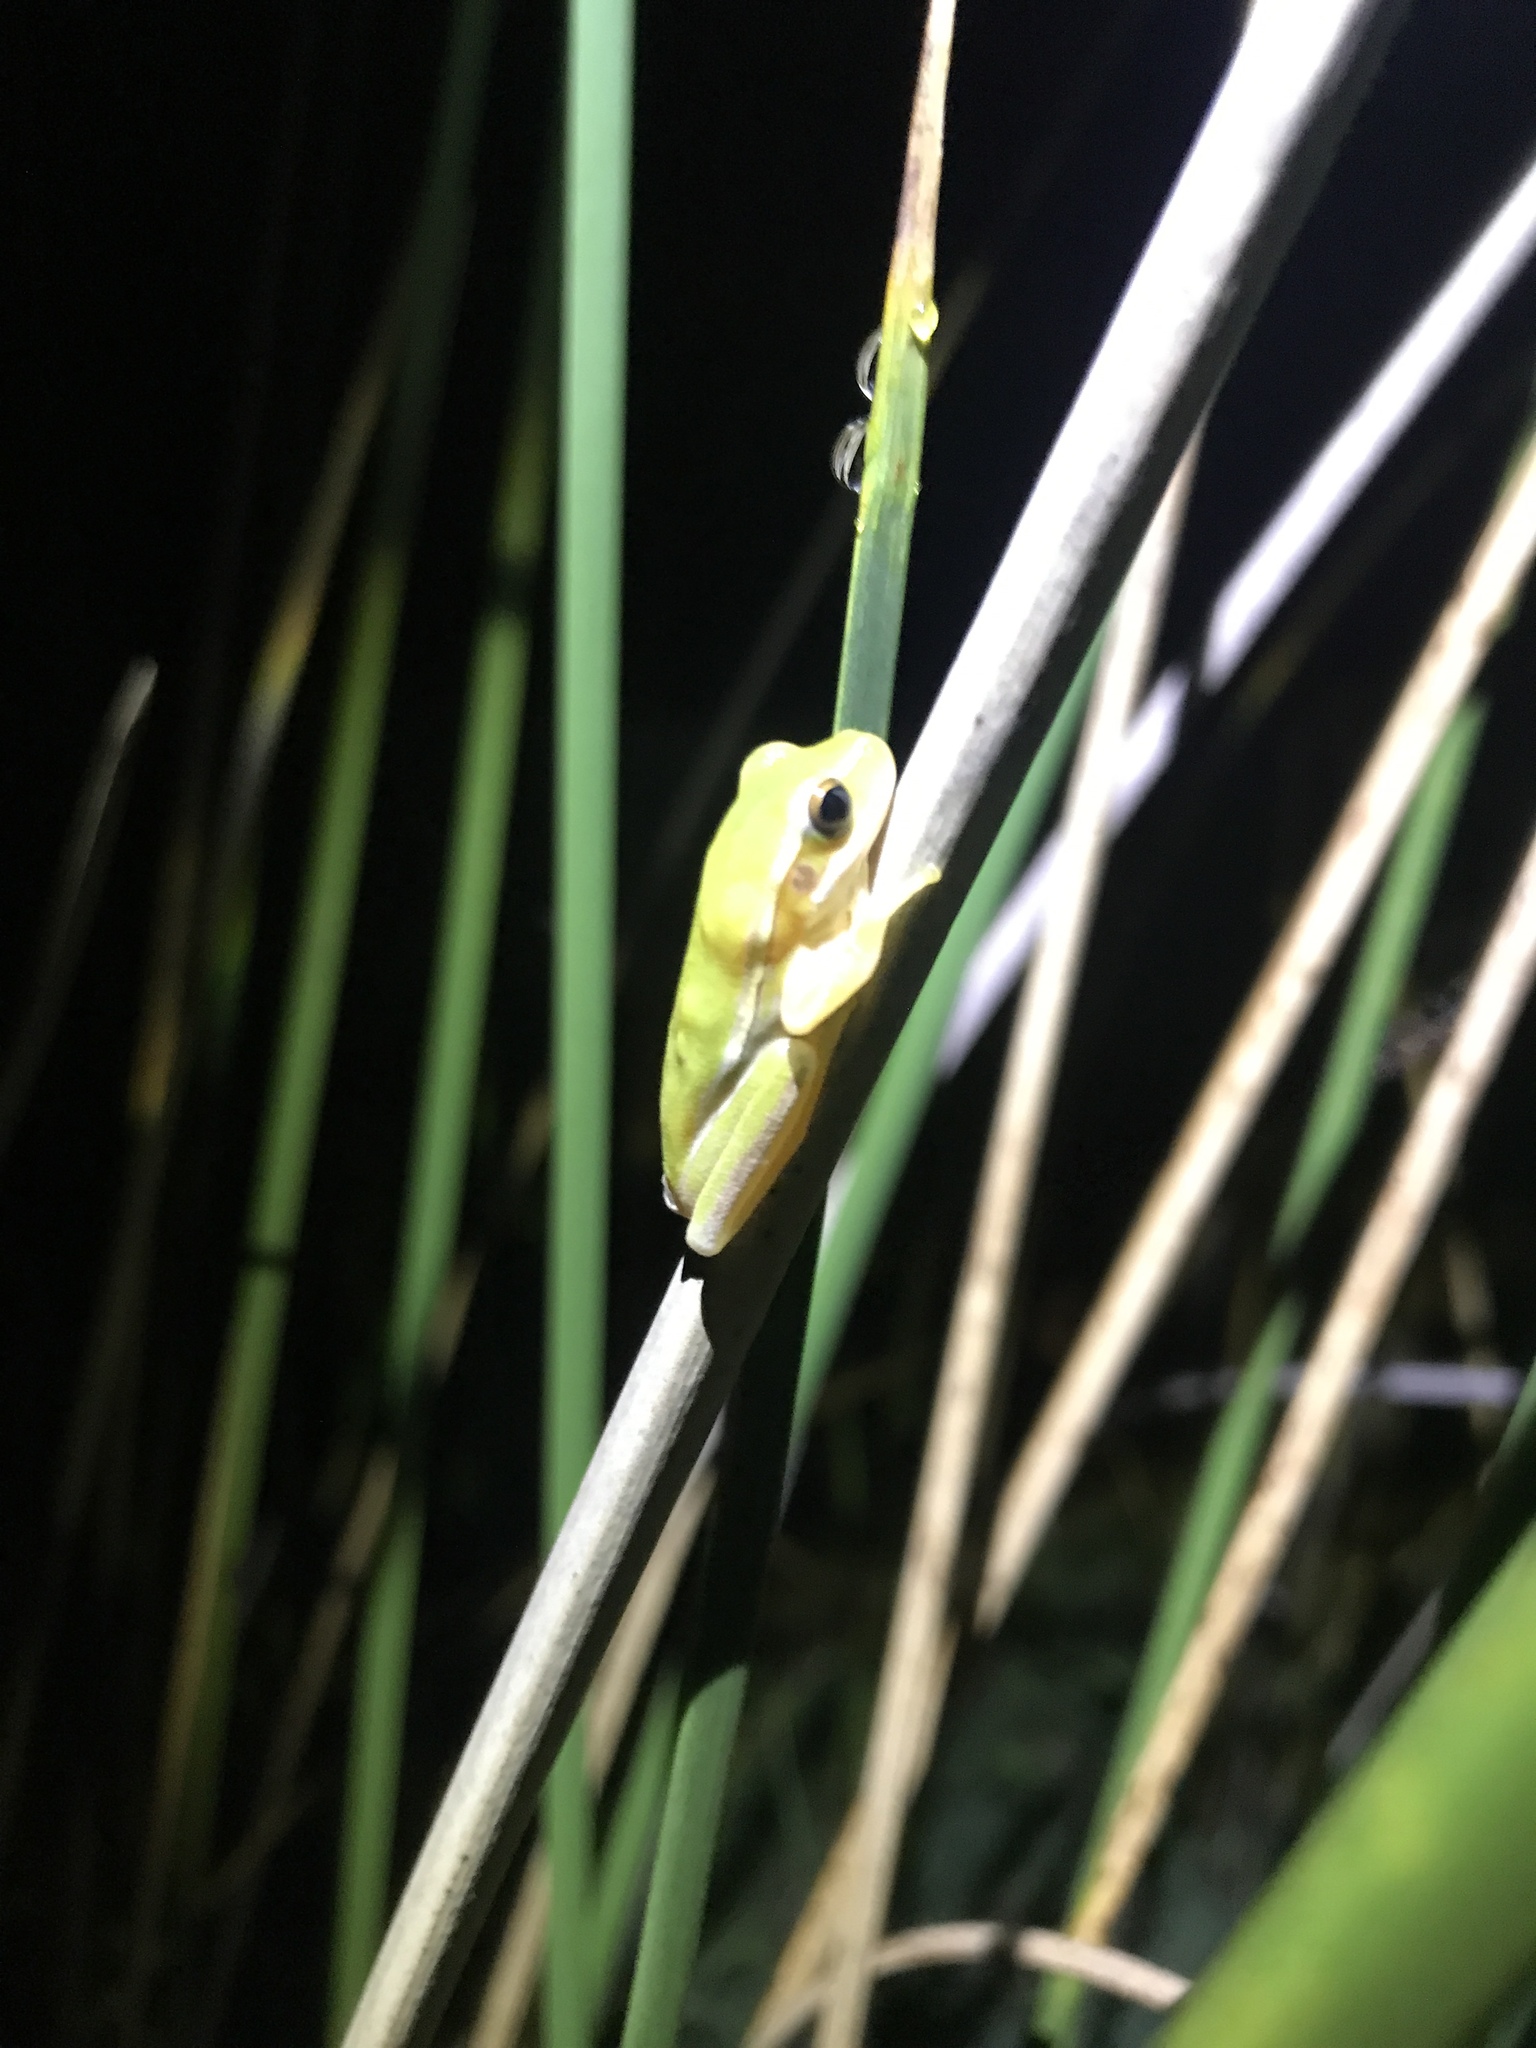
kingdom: Animalia
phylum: Chordata
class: Amphibia
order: Anura
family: Hylidae
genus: Boana
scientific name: Boana pulchella
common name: Montevideo treefrog
